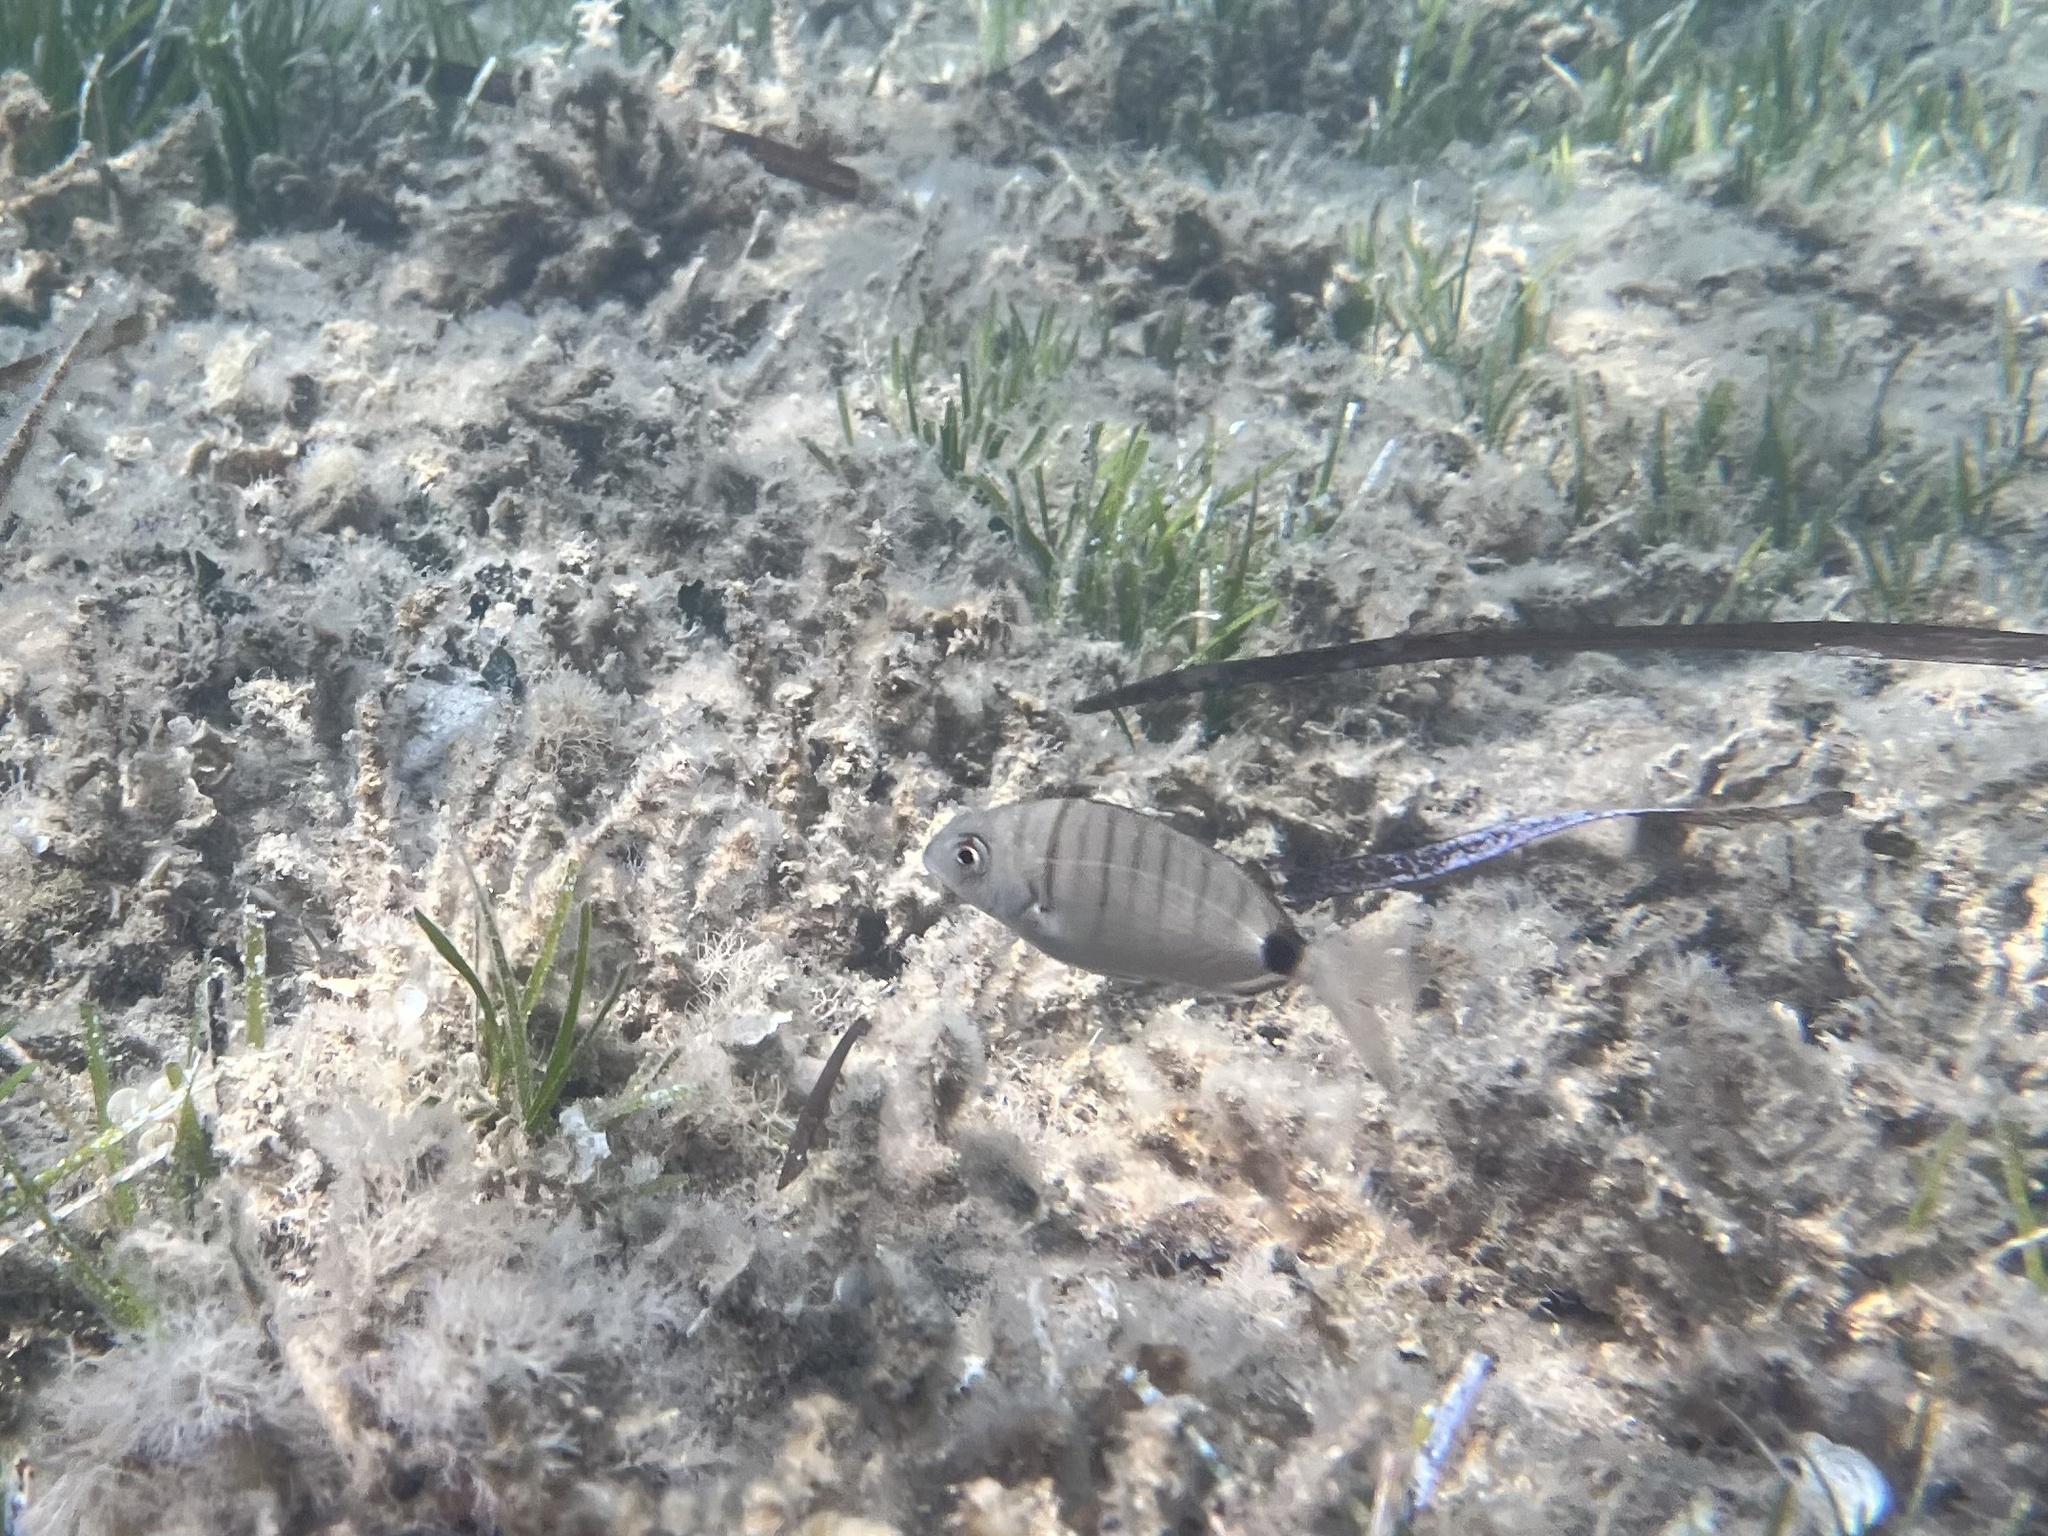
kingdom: Animalia
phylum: Chordata
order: Perciformes
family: Sparidae
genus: Diplodus
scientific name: Diplodus sargus
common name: White seabream
